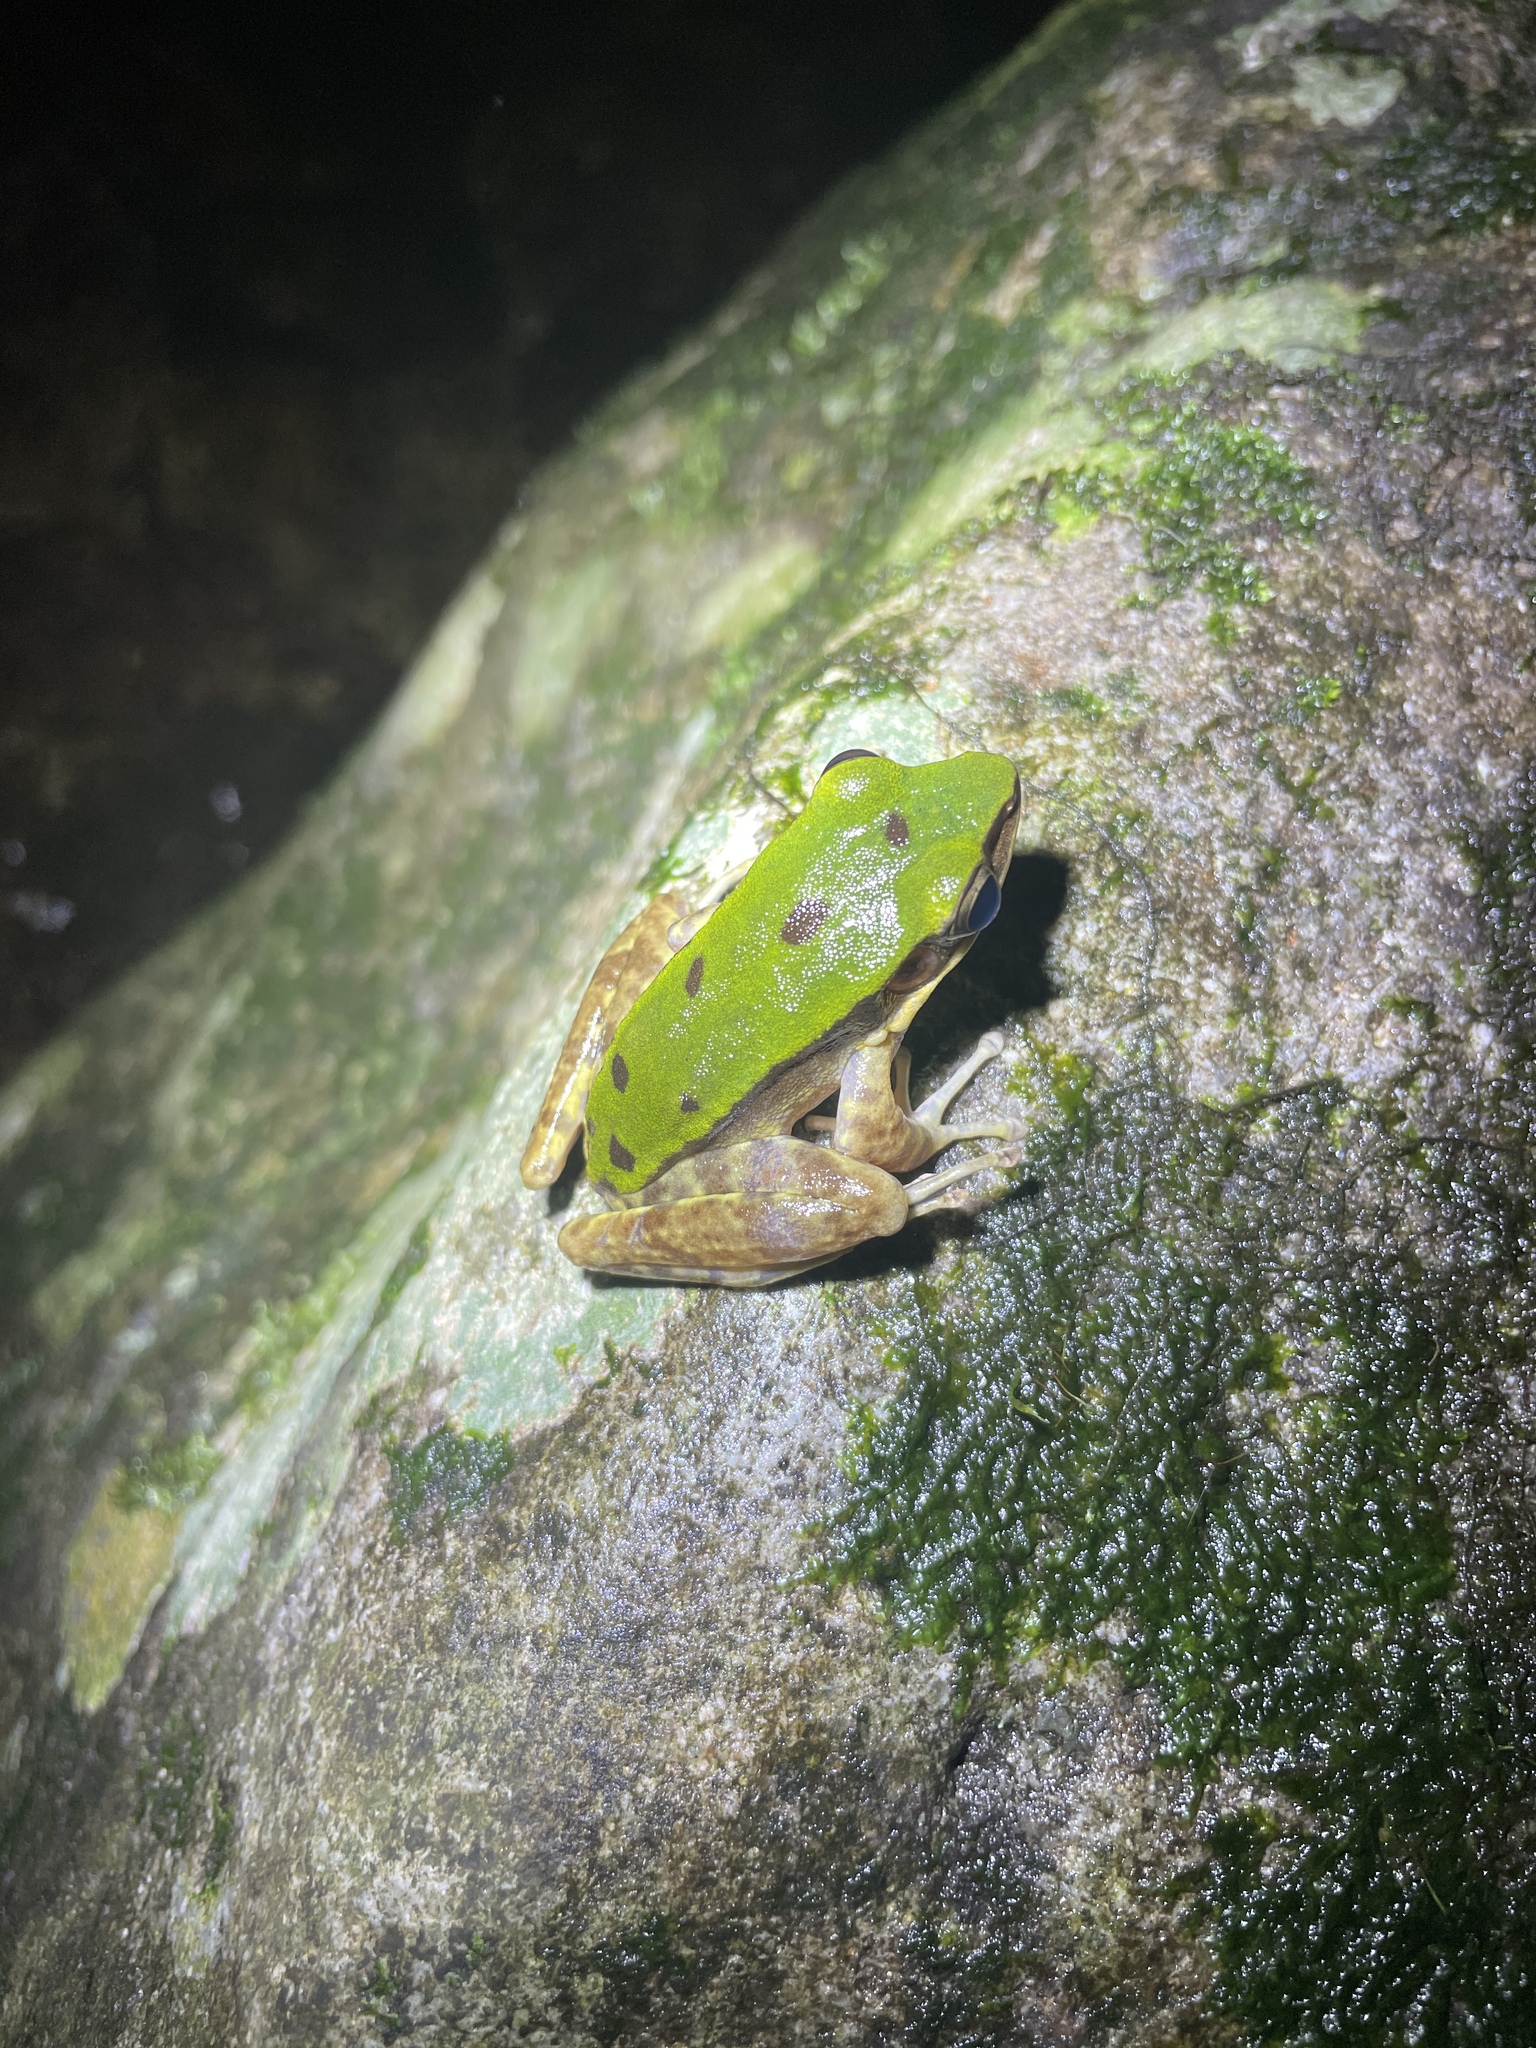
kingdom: Animalia
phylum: Chordata
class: Amphibia
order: Anura
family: Ranidae
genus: Odorrana
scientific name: Odorrana graminea
